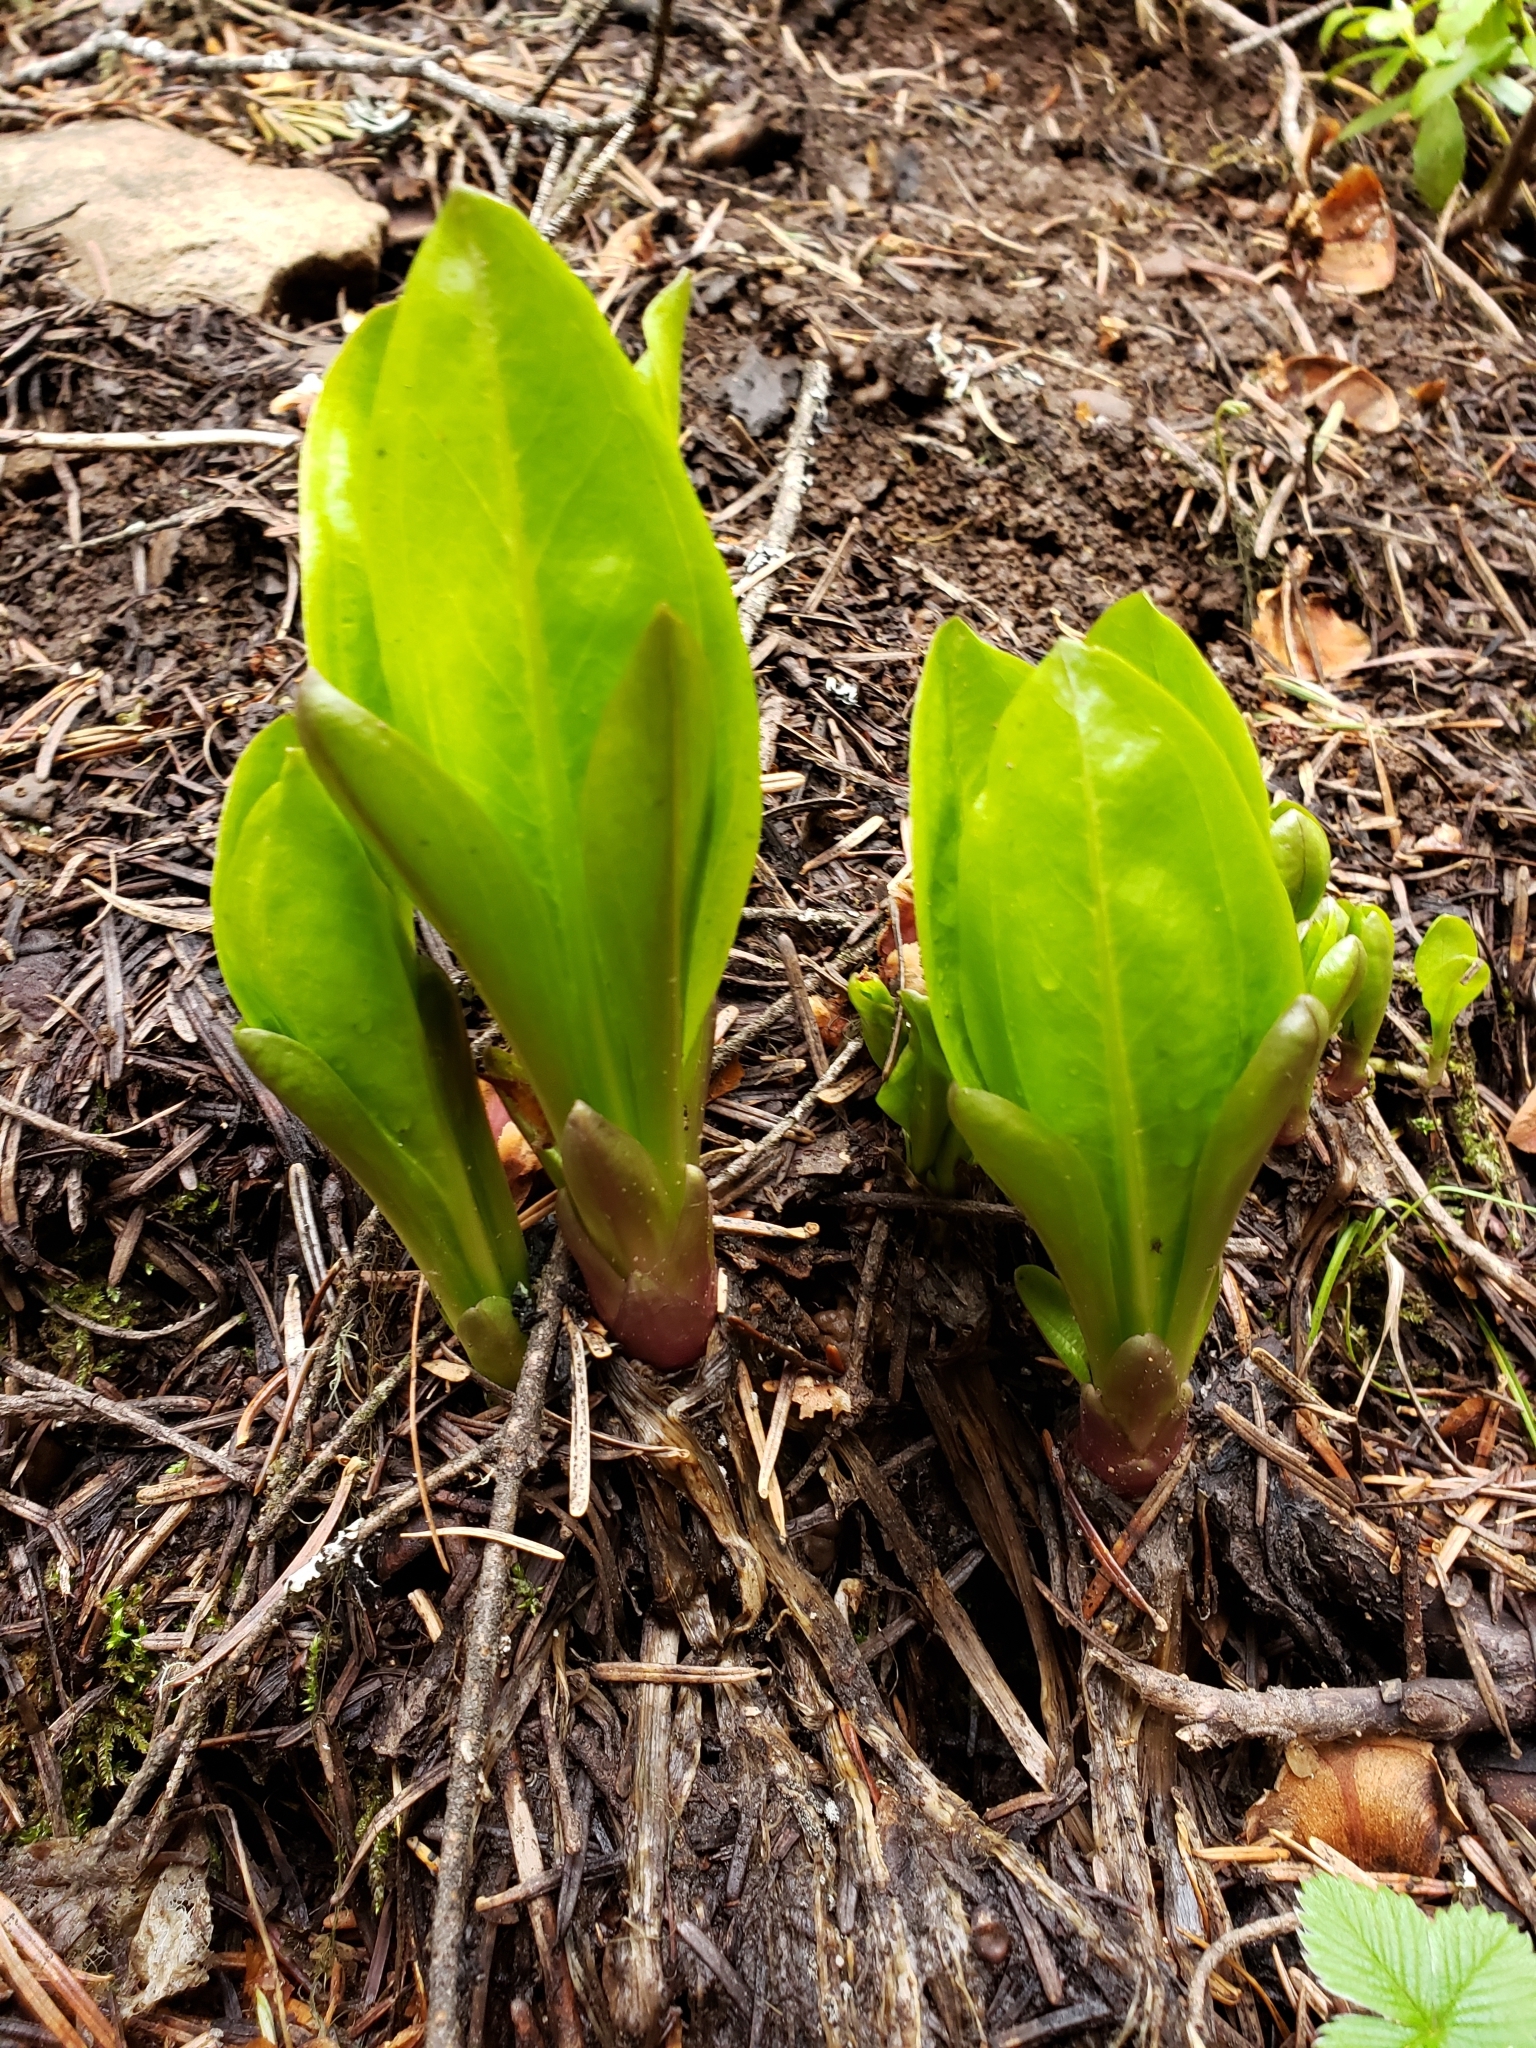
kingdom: Plantae
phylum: Tracheophyta
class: Magnoliopsida
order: Gentianales
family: Gentianaceae
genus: Frasera
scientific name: Frasera fastigiata
